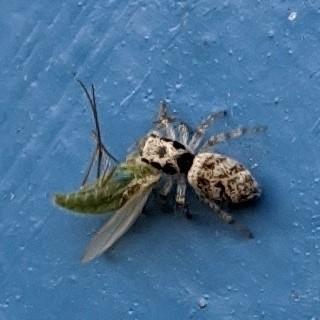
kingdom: Animalia
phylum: Arthropoda
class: Arachnida
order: Araneae
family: Salticidae
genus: Salticus
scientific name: Salticus scenicus
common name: Zebra jumper
